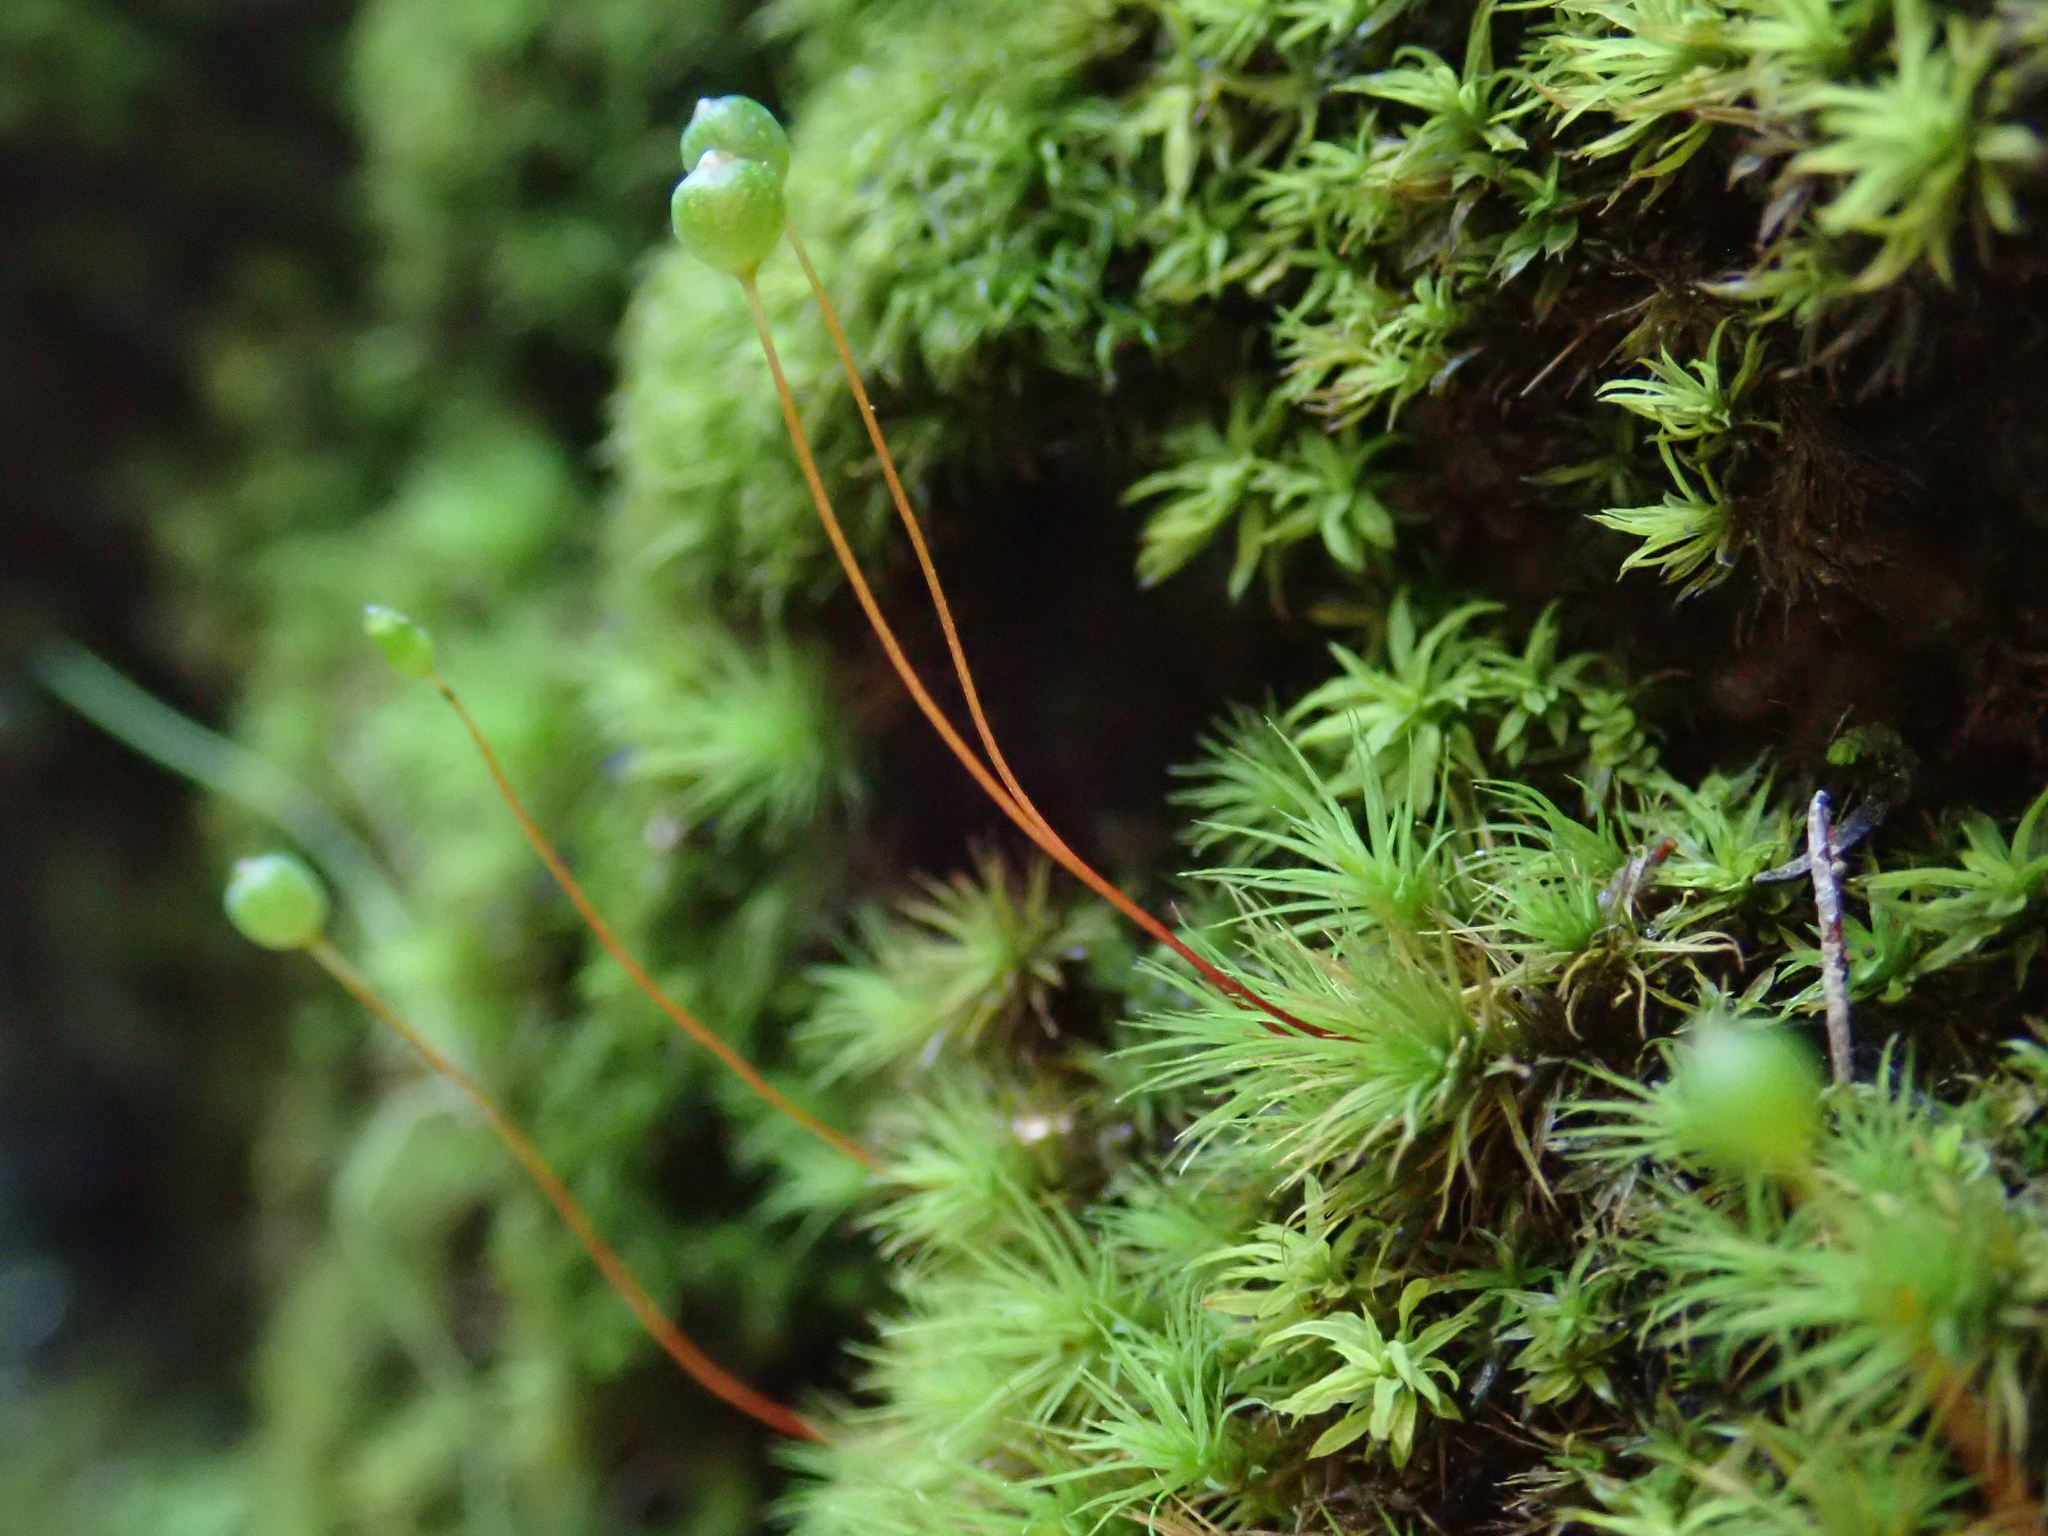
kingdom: Plantae
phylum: Bryophyta
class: Bryopsida
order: Bartramiales
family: Bartramiaceae
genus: Bartramia
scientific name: Bartramia aprica
